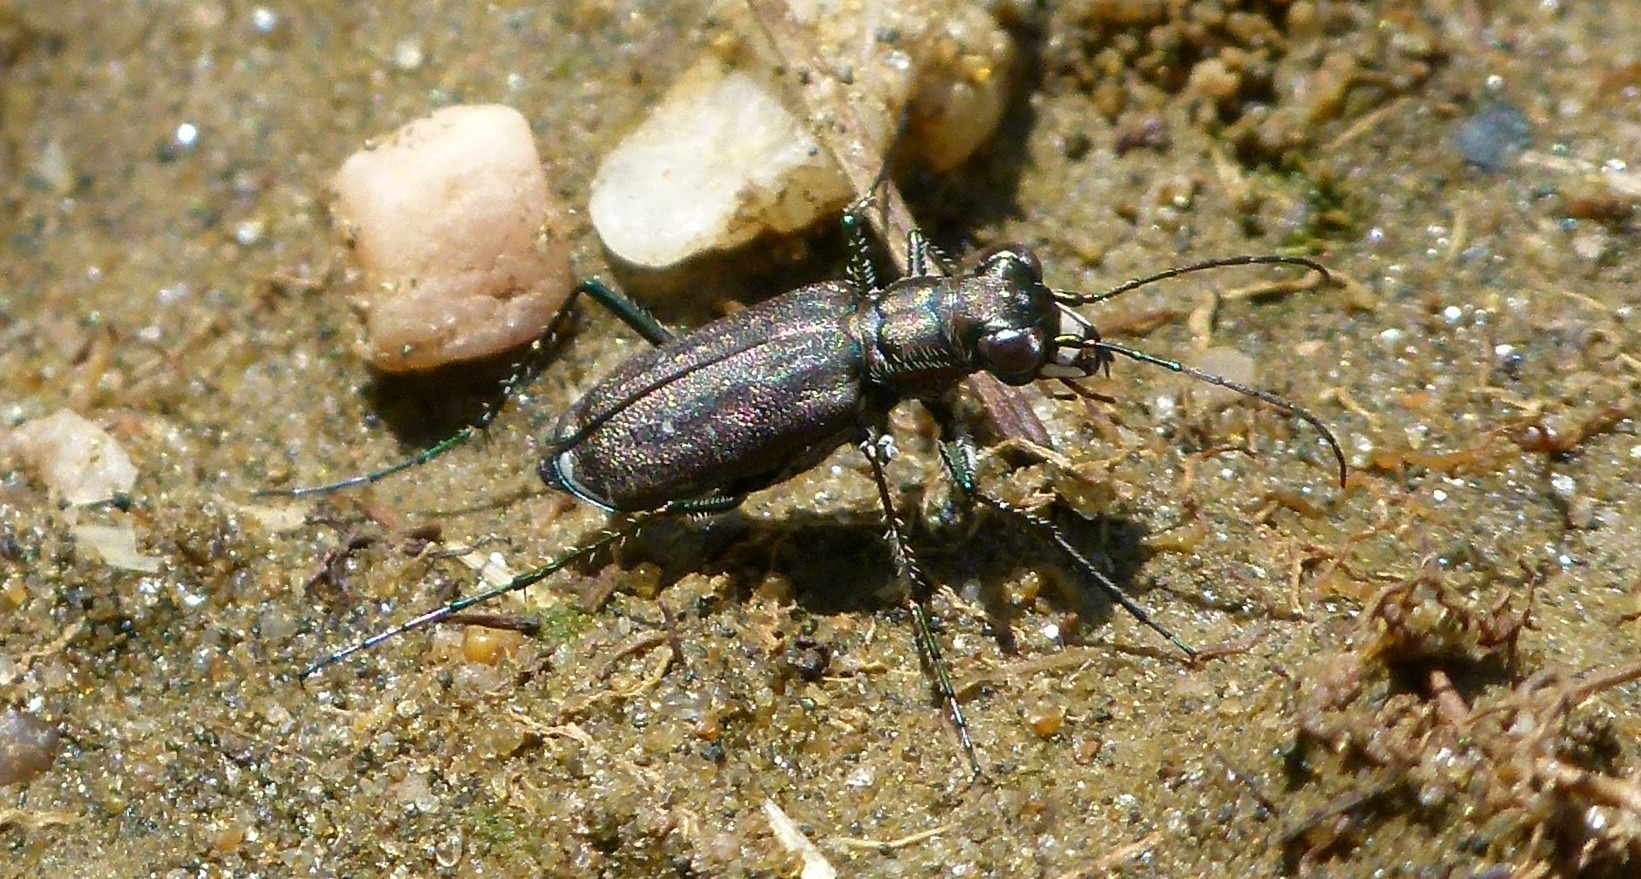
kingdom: Animalia
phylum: Arthropoda
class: Insecta
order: Coleoptera
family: Carabidae
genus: Cicindela
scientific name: Cicindela punctulata
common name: Punctured tiger beetle
